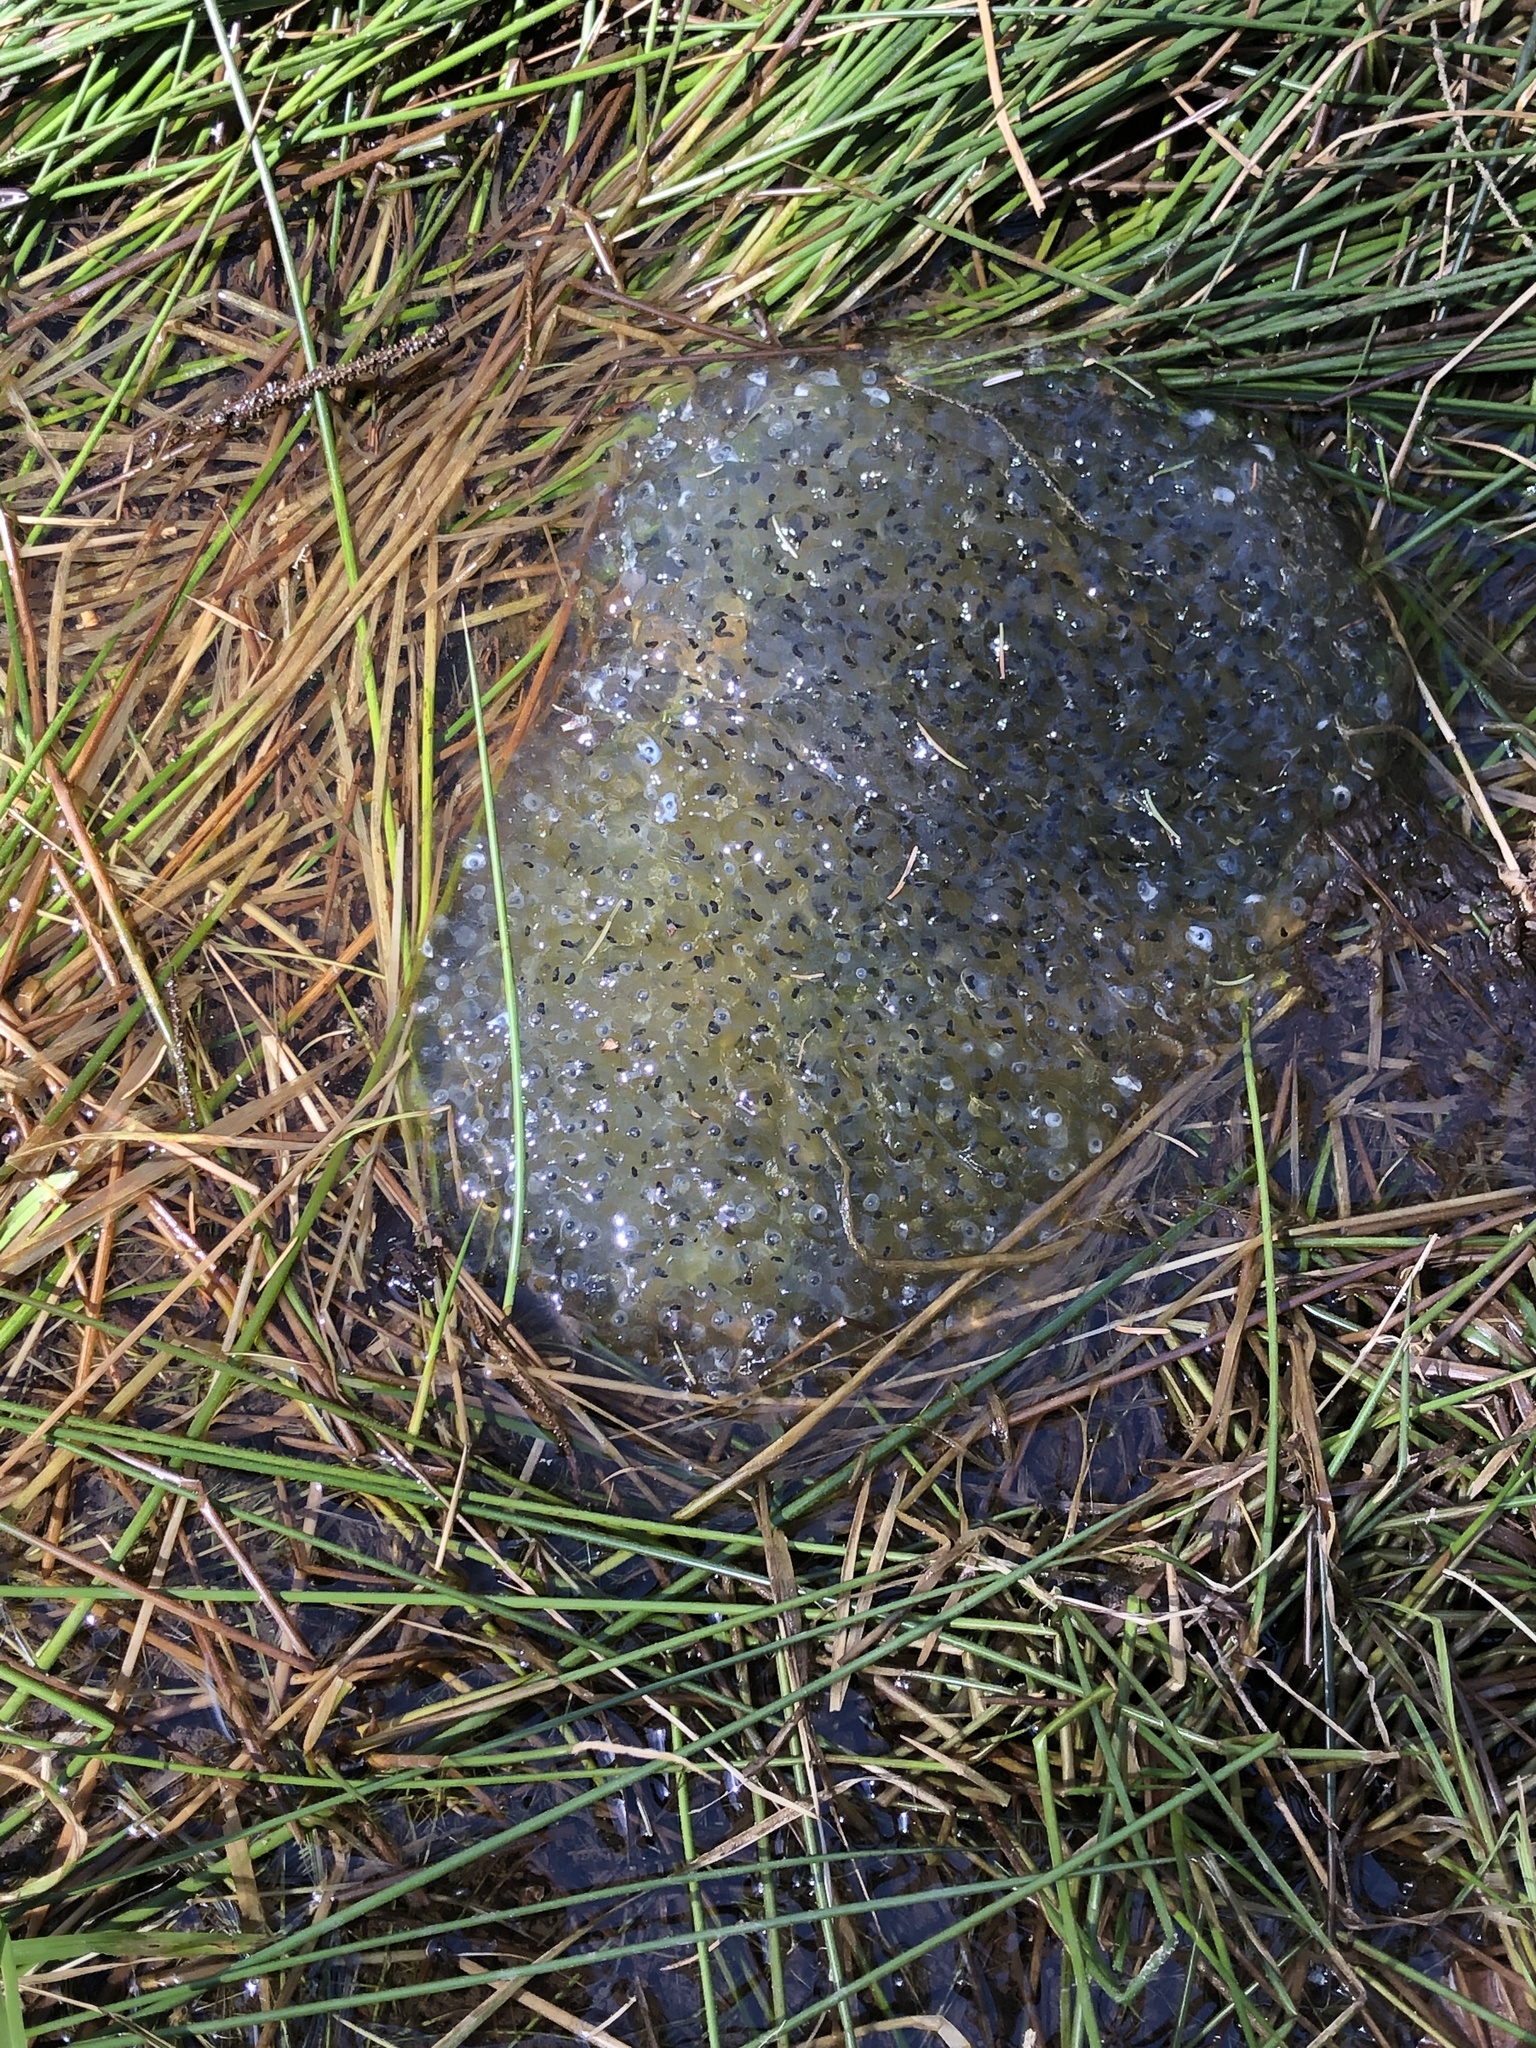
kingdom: Animalia
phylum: Chordata
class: Amphibia
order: Anura
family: Ranidae
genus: Rana
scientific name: Rana temporaria
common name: Common frog
